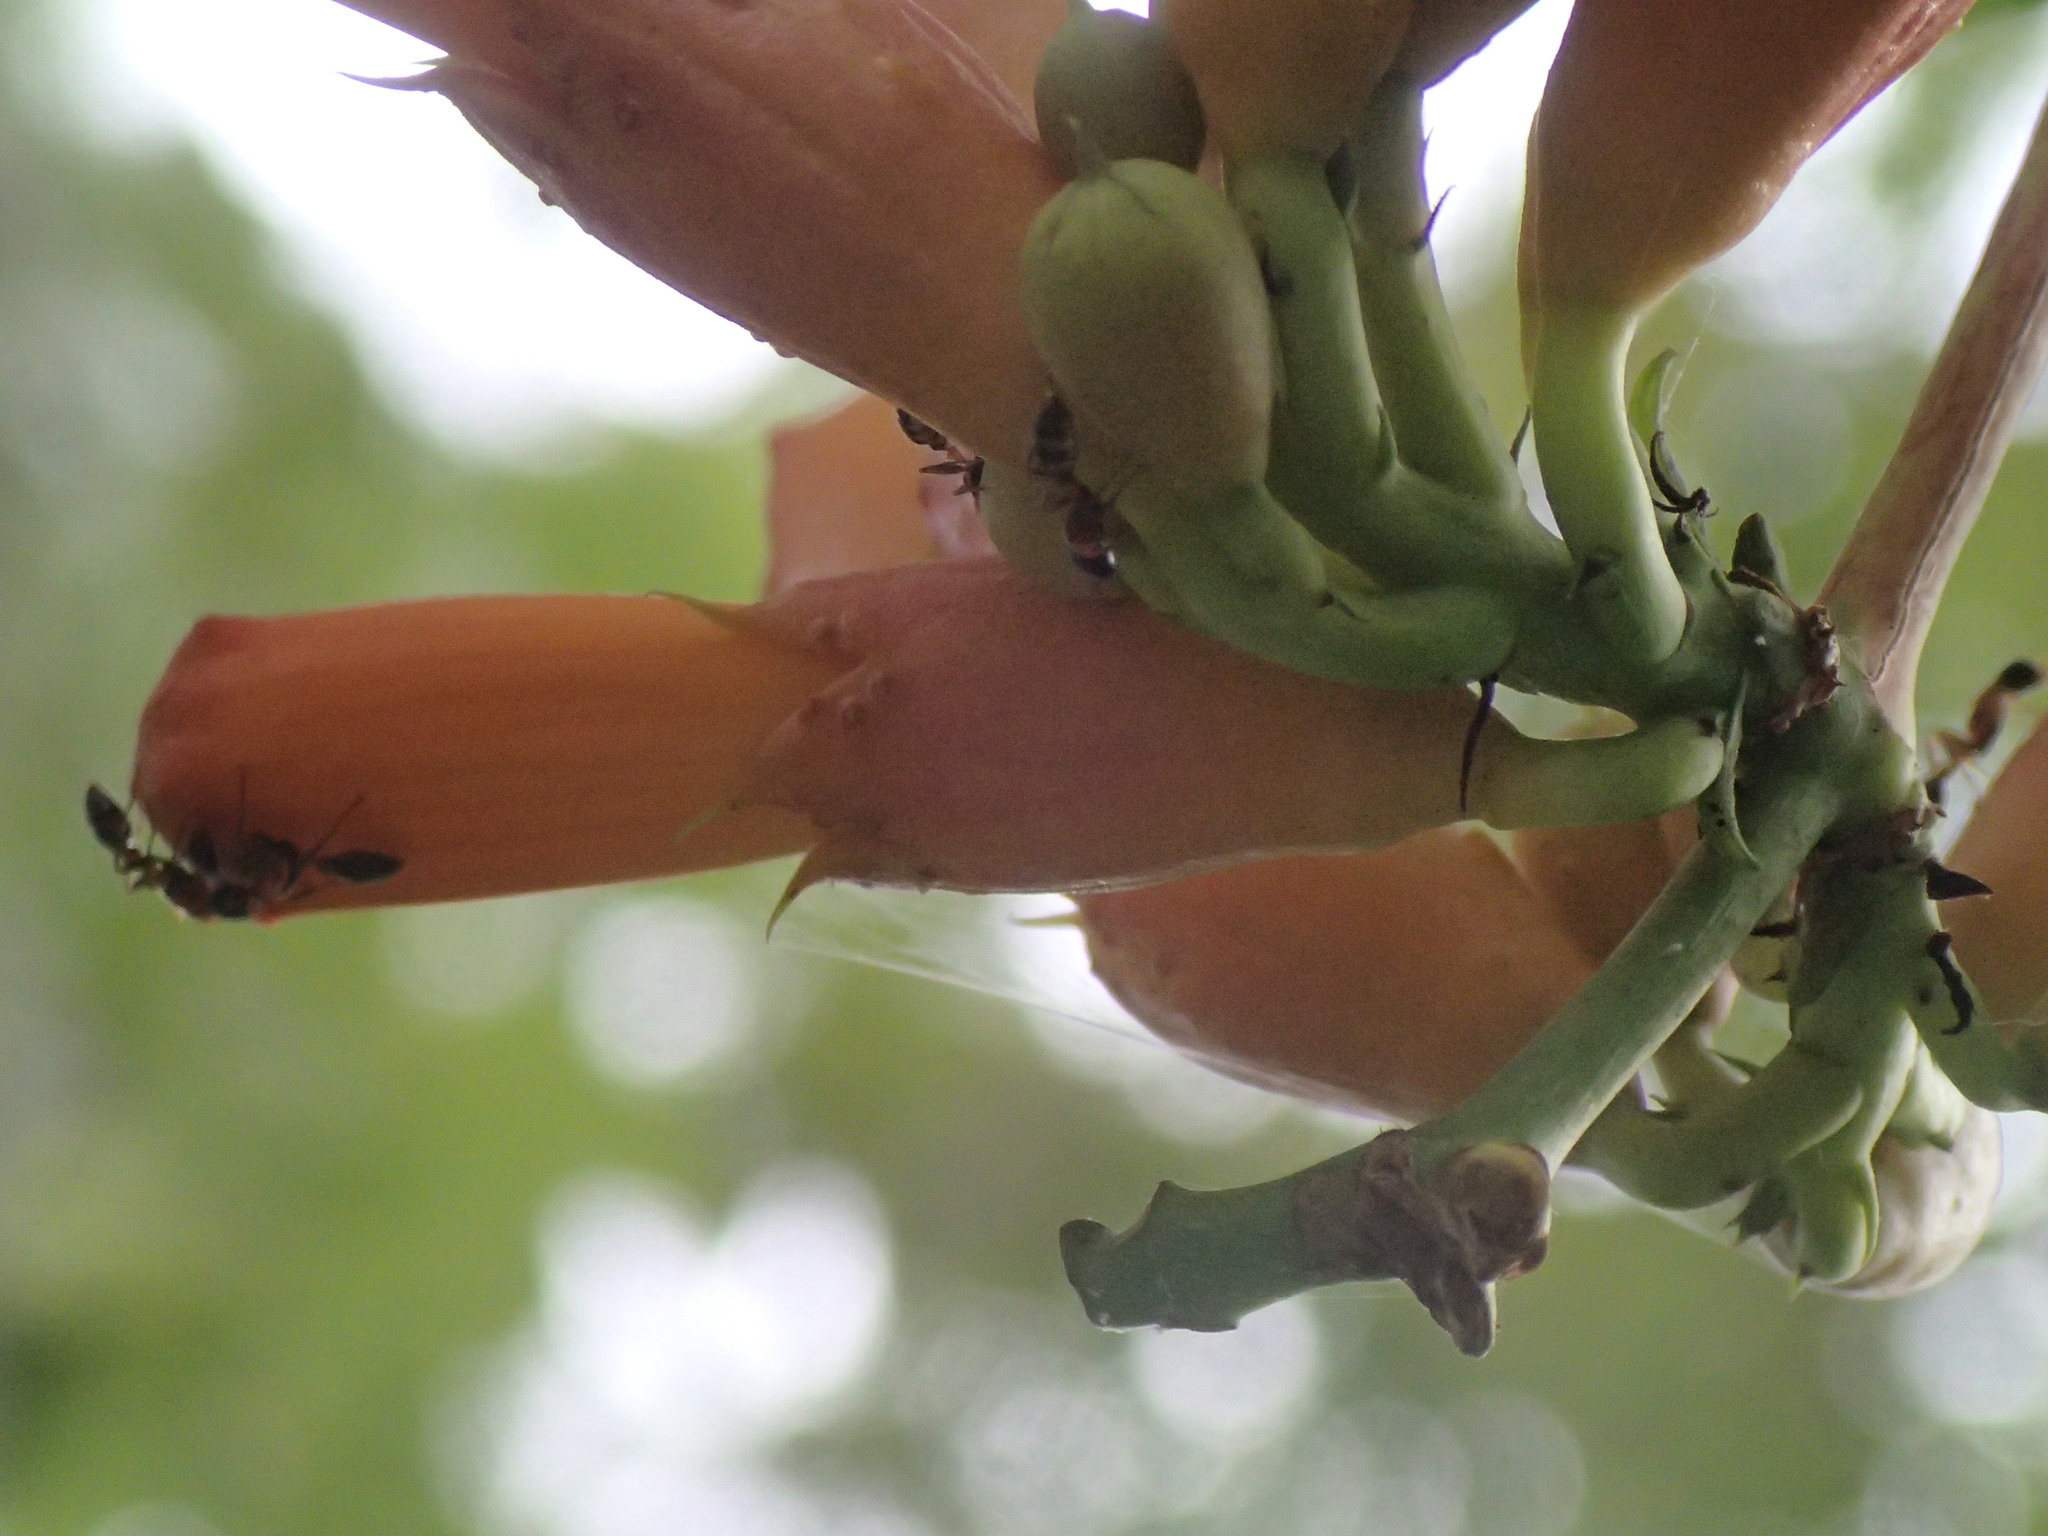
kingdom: Animalia
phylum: Arthropoda
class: Insecta
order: Hymenoptera
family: Formicidae
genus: Pseudomyrmex
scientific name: Pseudomyrmex gracilis
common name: Graceful twig ant
